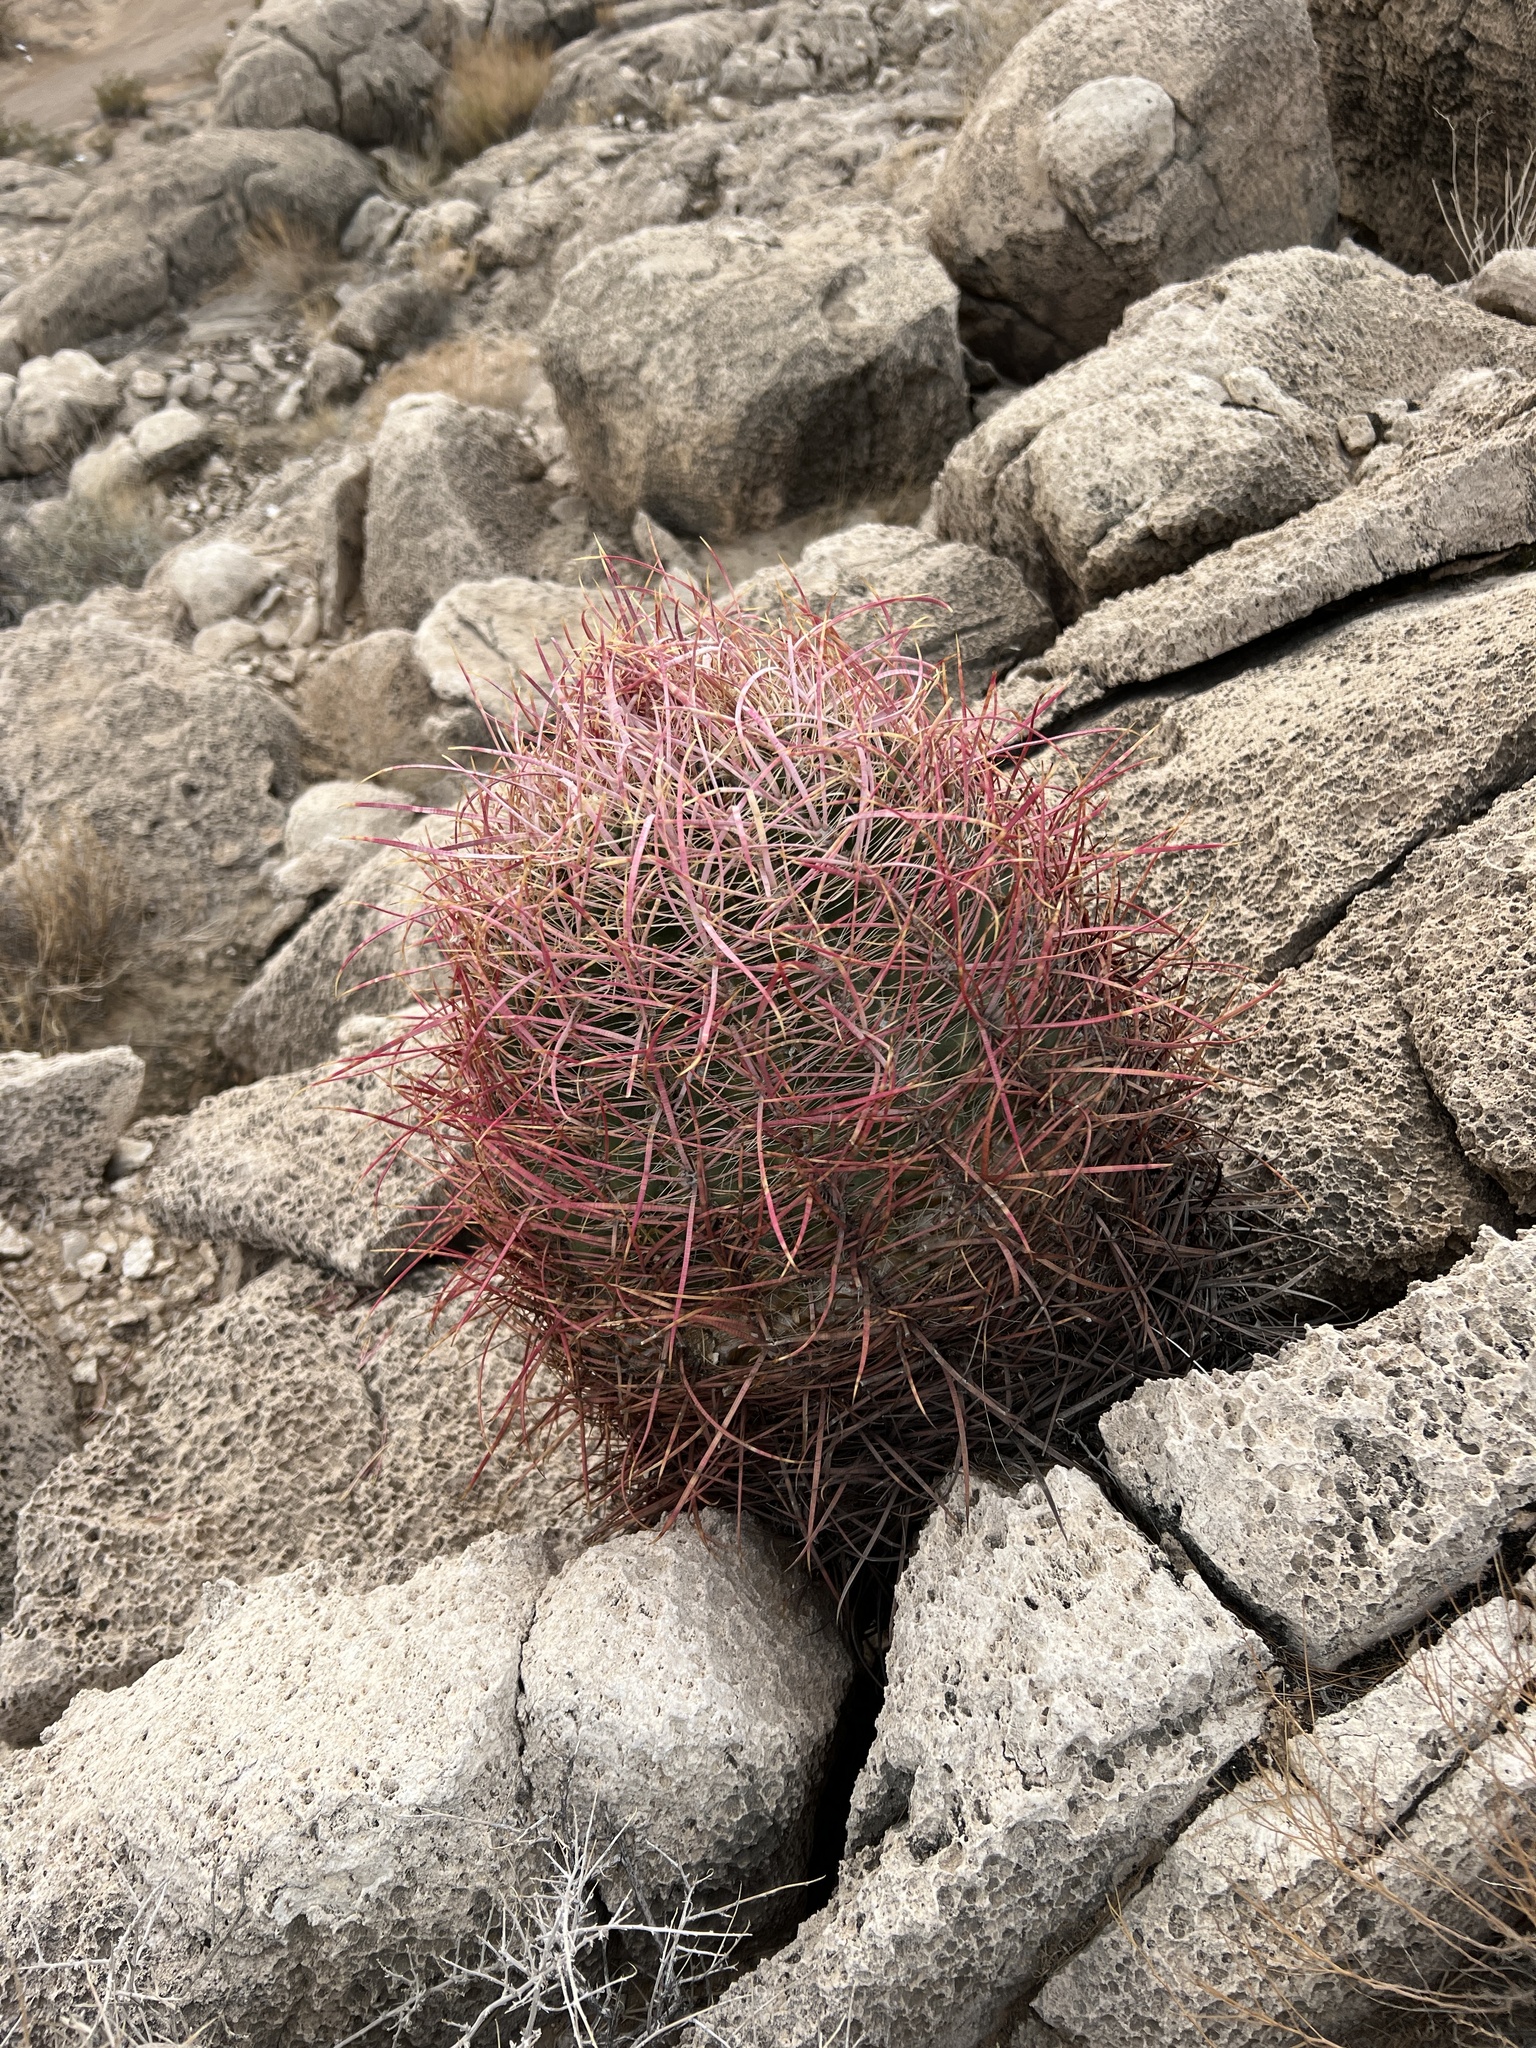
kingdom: Plantae
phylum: Tracheophyta
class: Magnoliopsida
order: Caryophyllales
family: Cactaceae
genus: Ferocactus
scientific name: Ferocactus cylindraceus
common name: California barrel cactus
